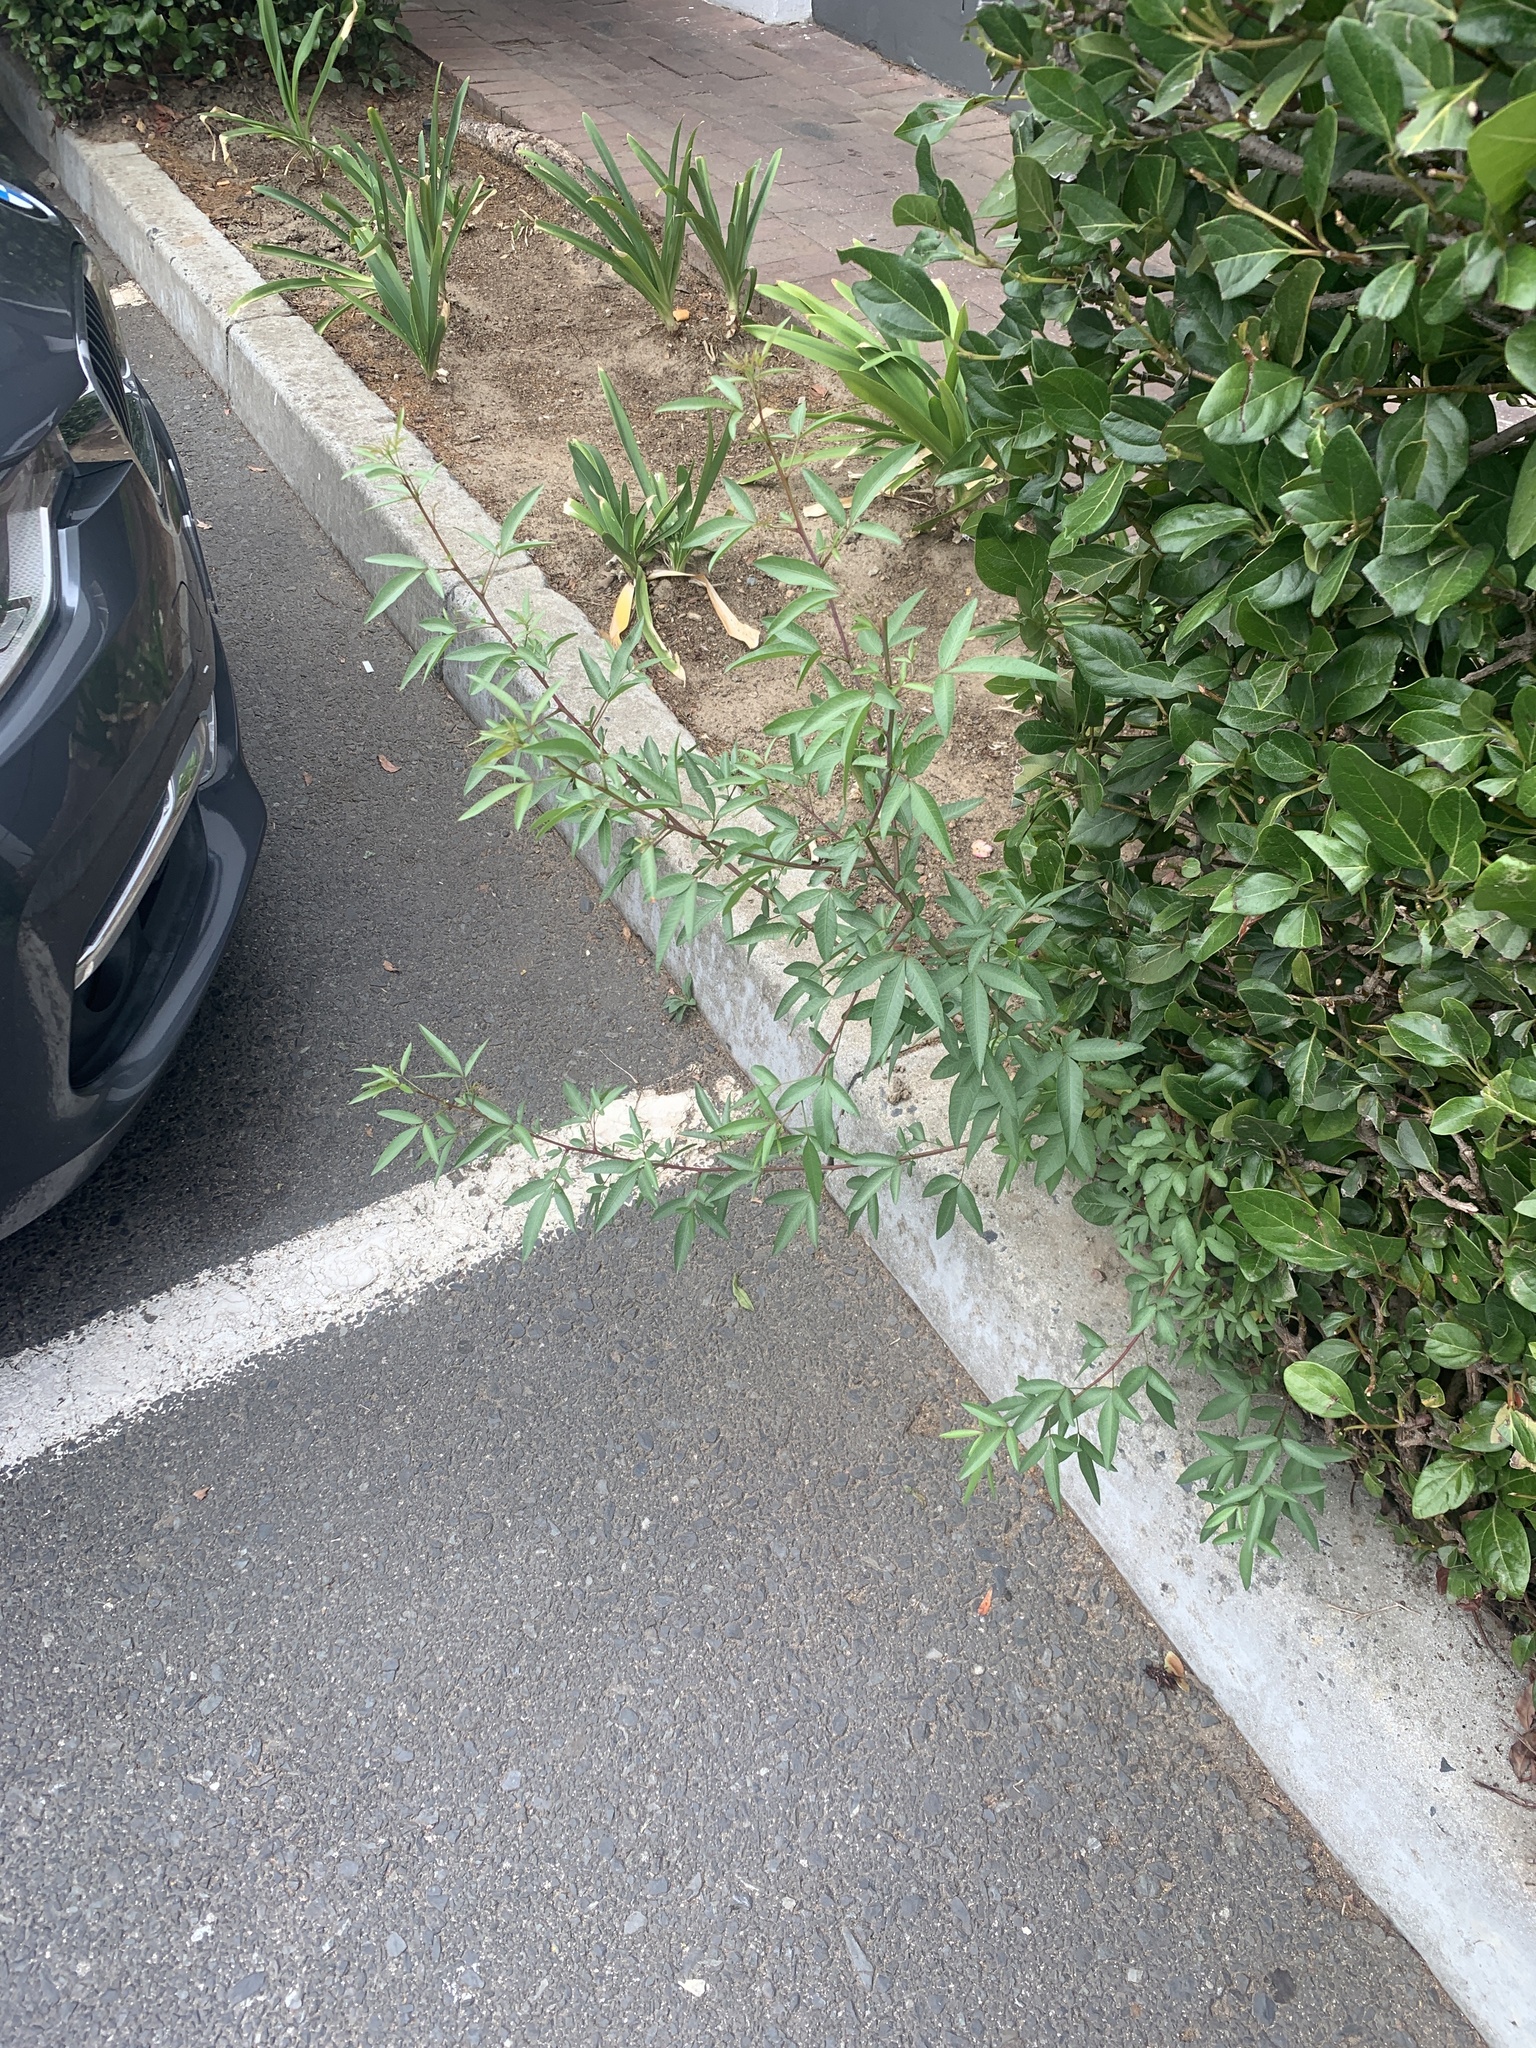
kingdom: Plantae
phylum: Tracheophyta
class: Magnoliopsida
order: Sapindales
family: Anacardiaceae
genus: Searsia
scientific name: Searsia pendulina
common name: White karee
